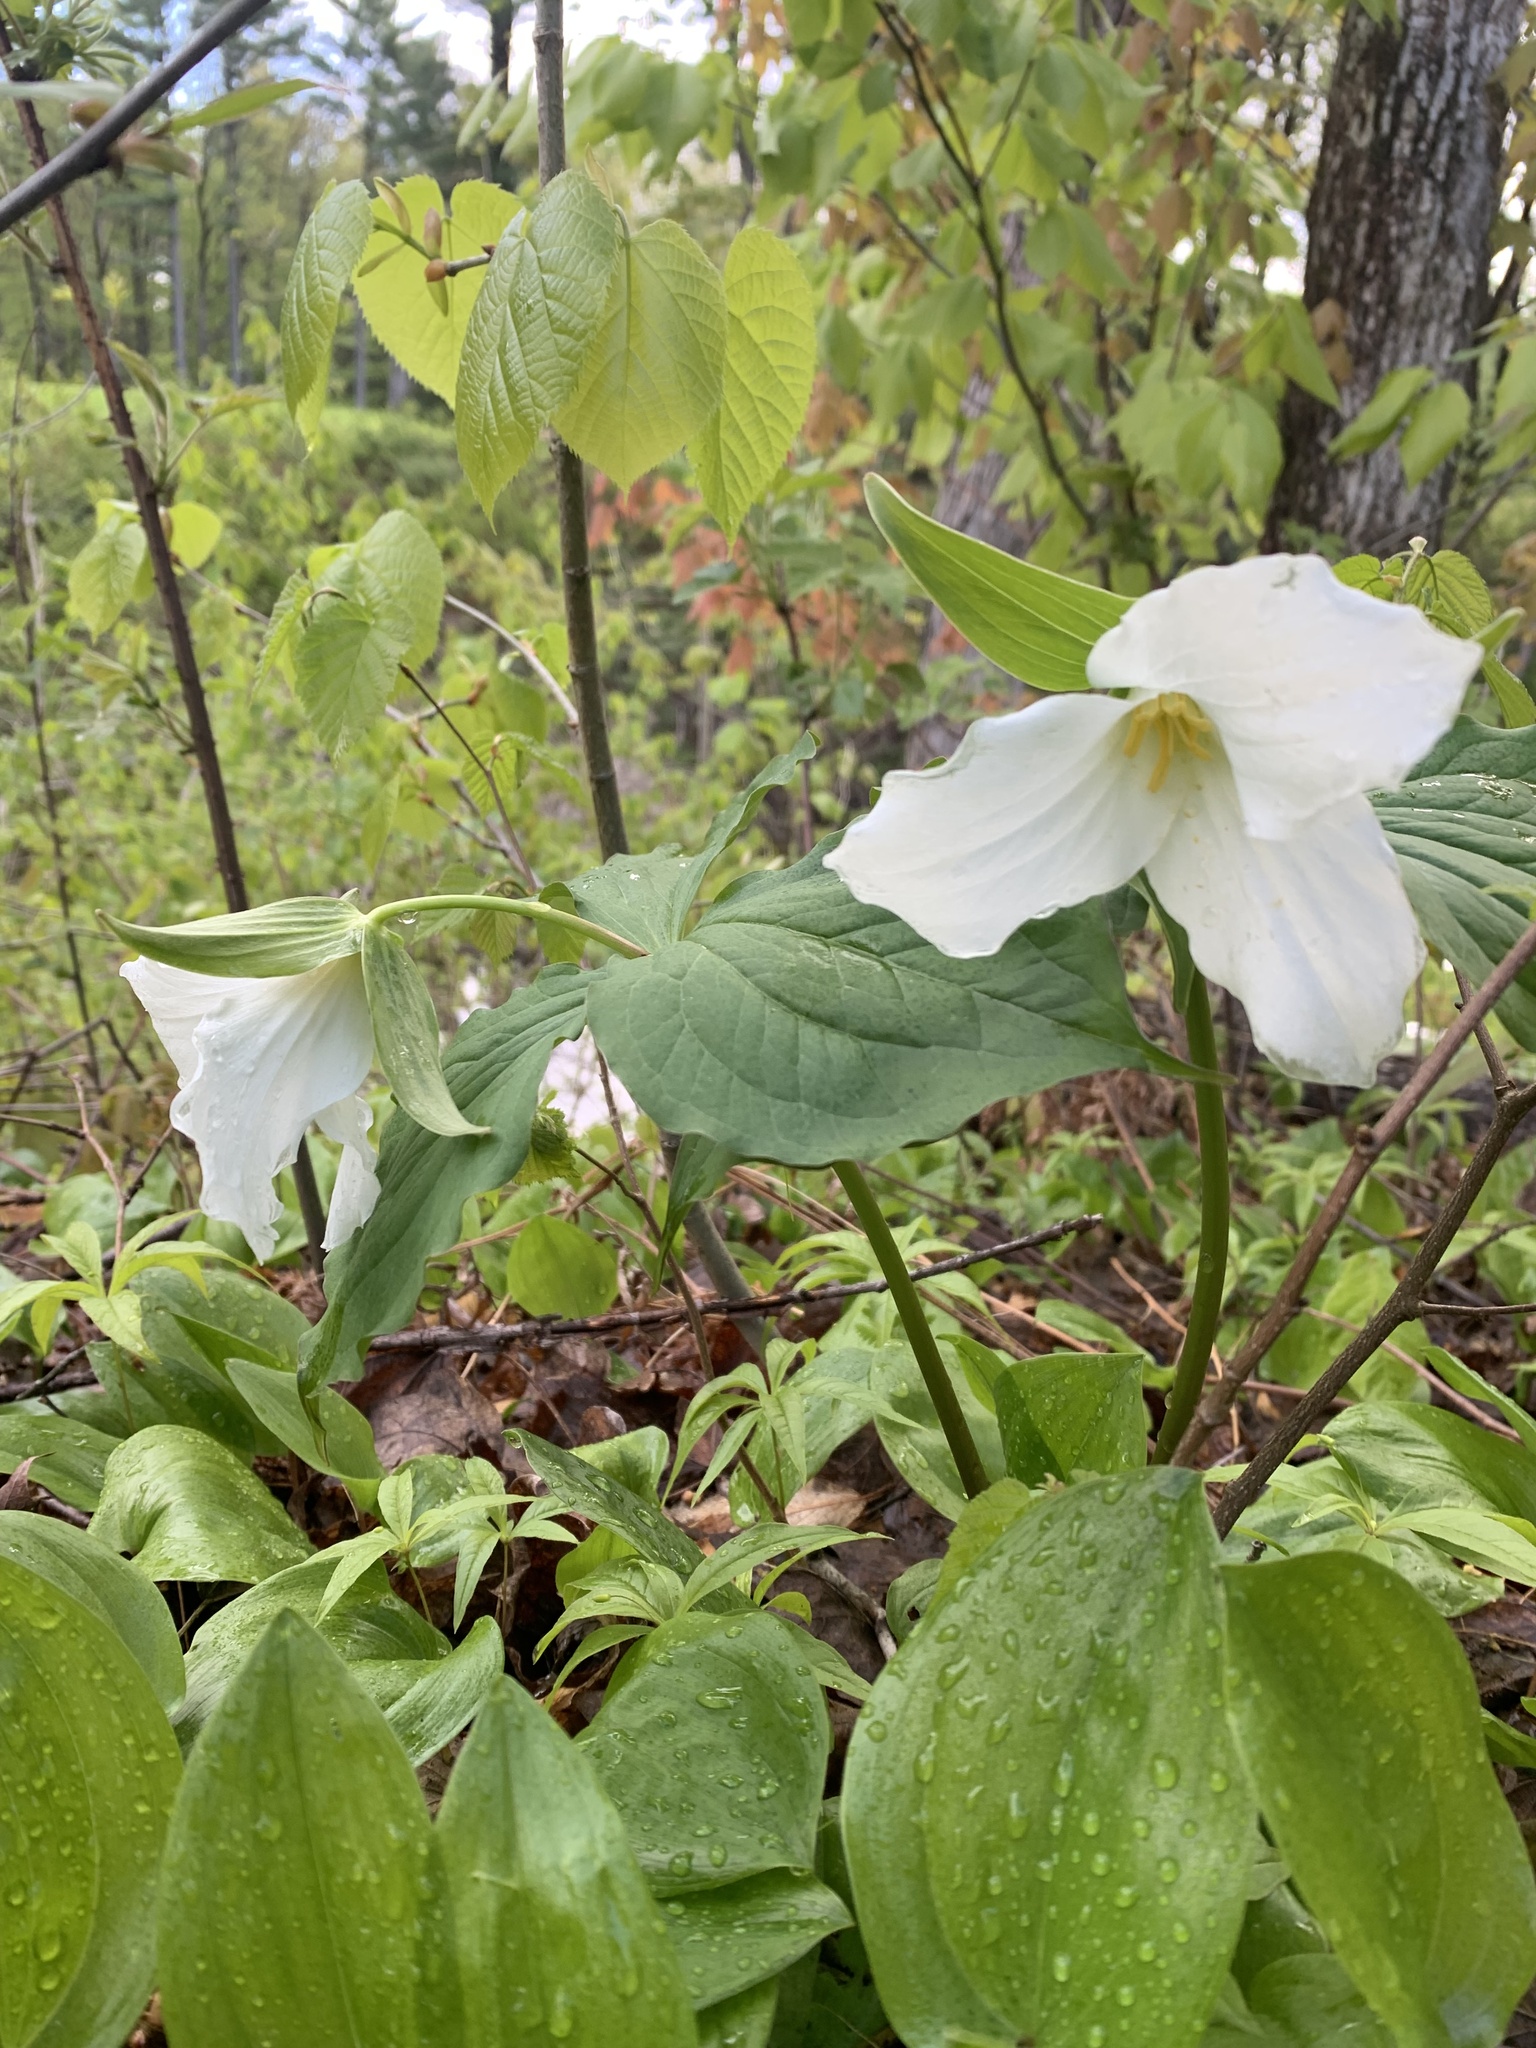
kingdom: Plantae
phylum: Tracheophyta
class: Liliopsida
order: Liliales
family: Melanthiaceae
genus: Trillium
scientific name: Trillium grandiflorum
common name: Great white trillium
